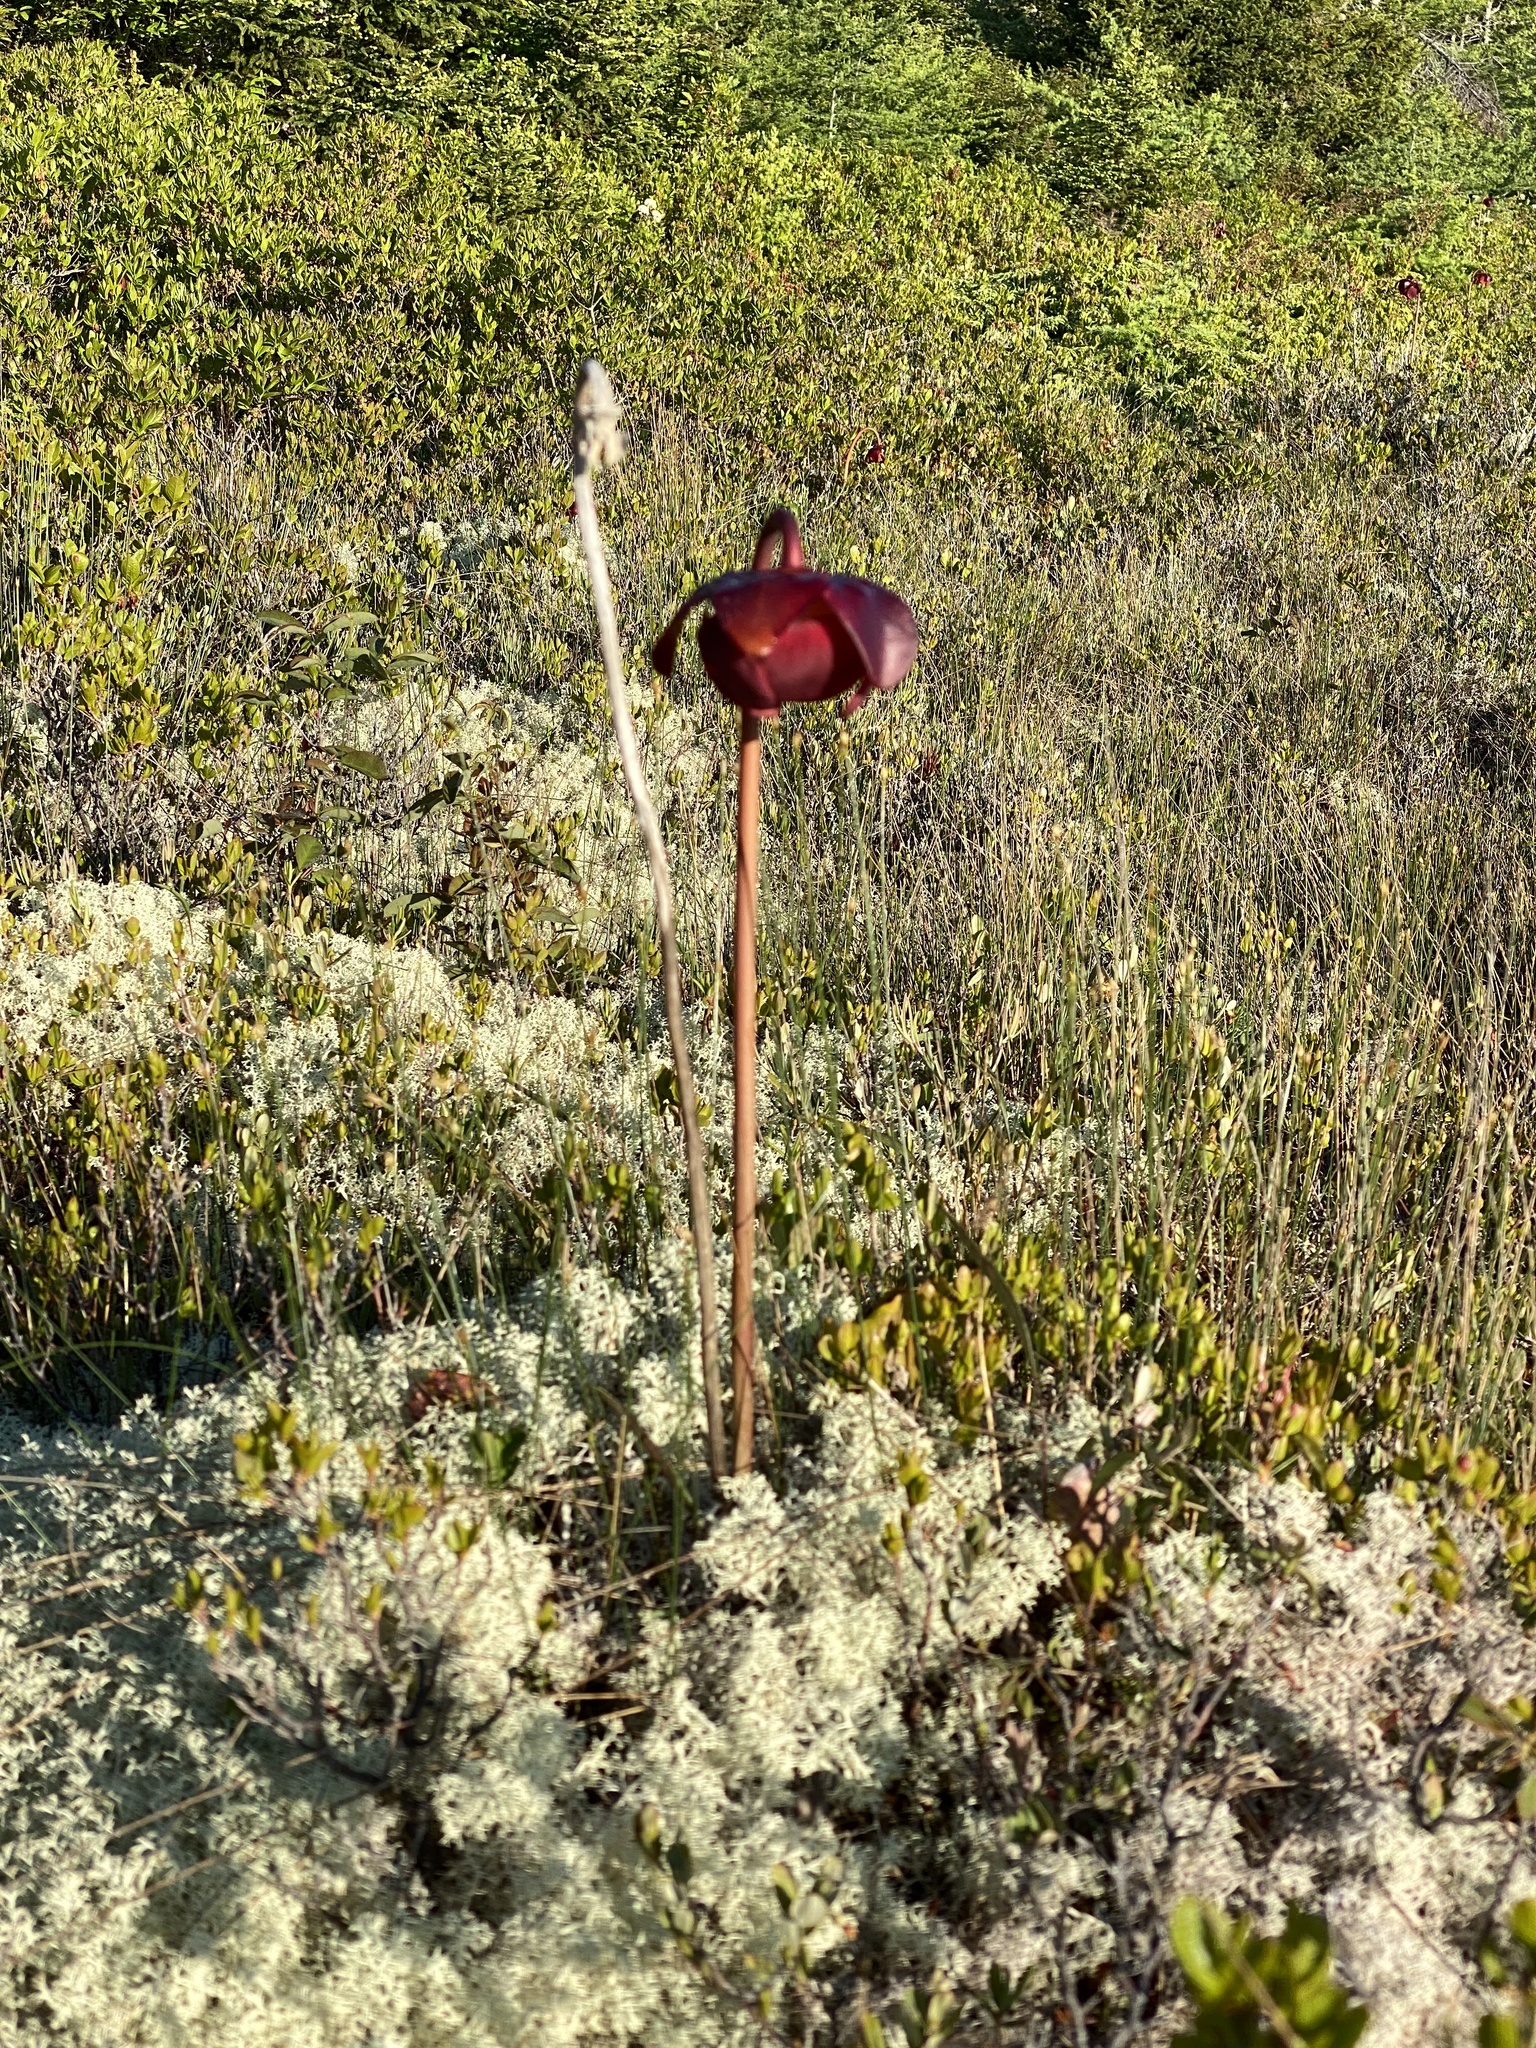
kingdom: Plantae
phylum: Tracheophyta
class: Magnoliopsida
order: Ericales
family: Sarraceniaceae
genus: Sarracenia
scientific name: Sarracenia purpurea
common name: Pitcherplant
